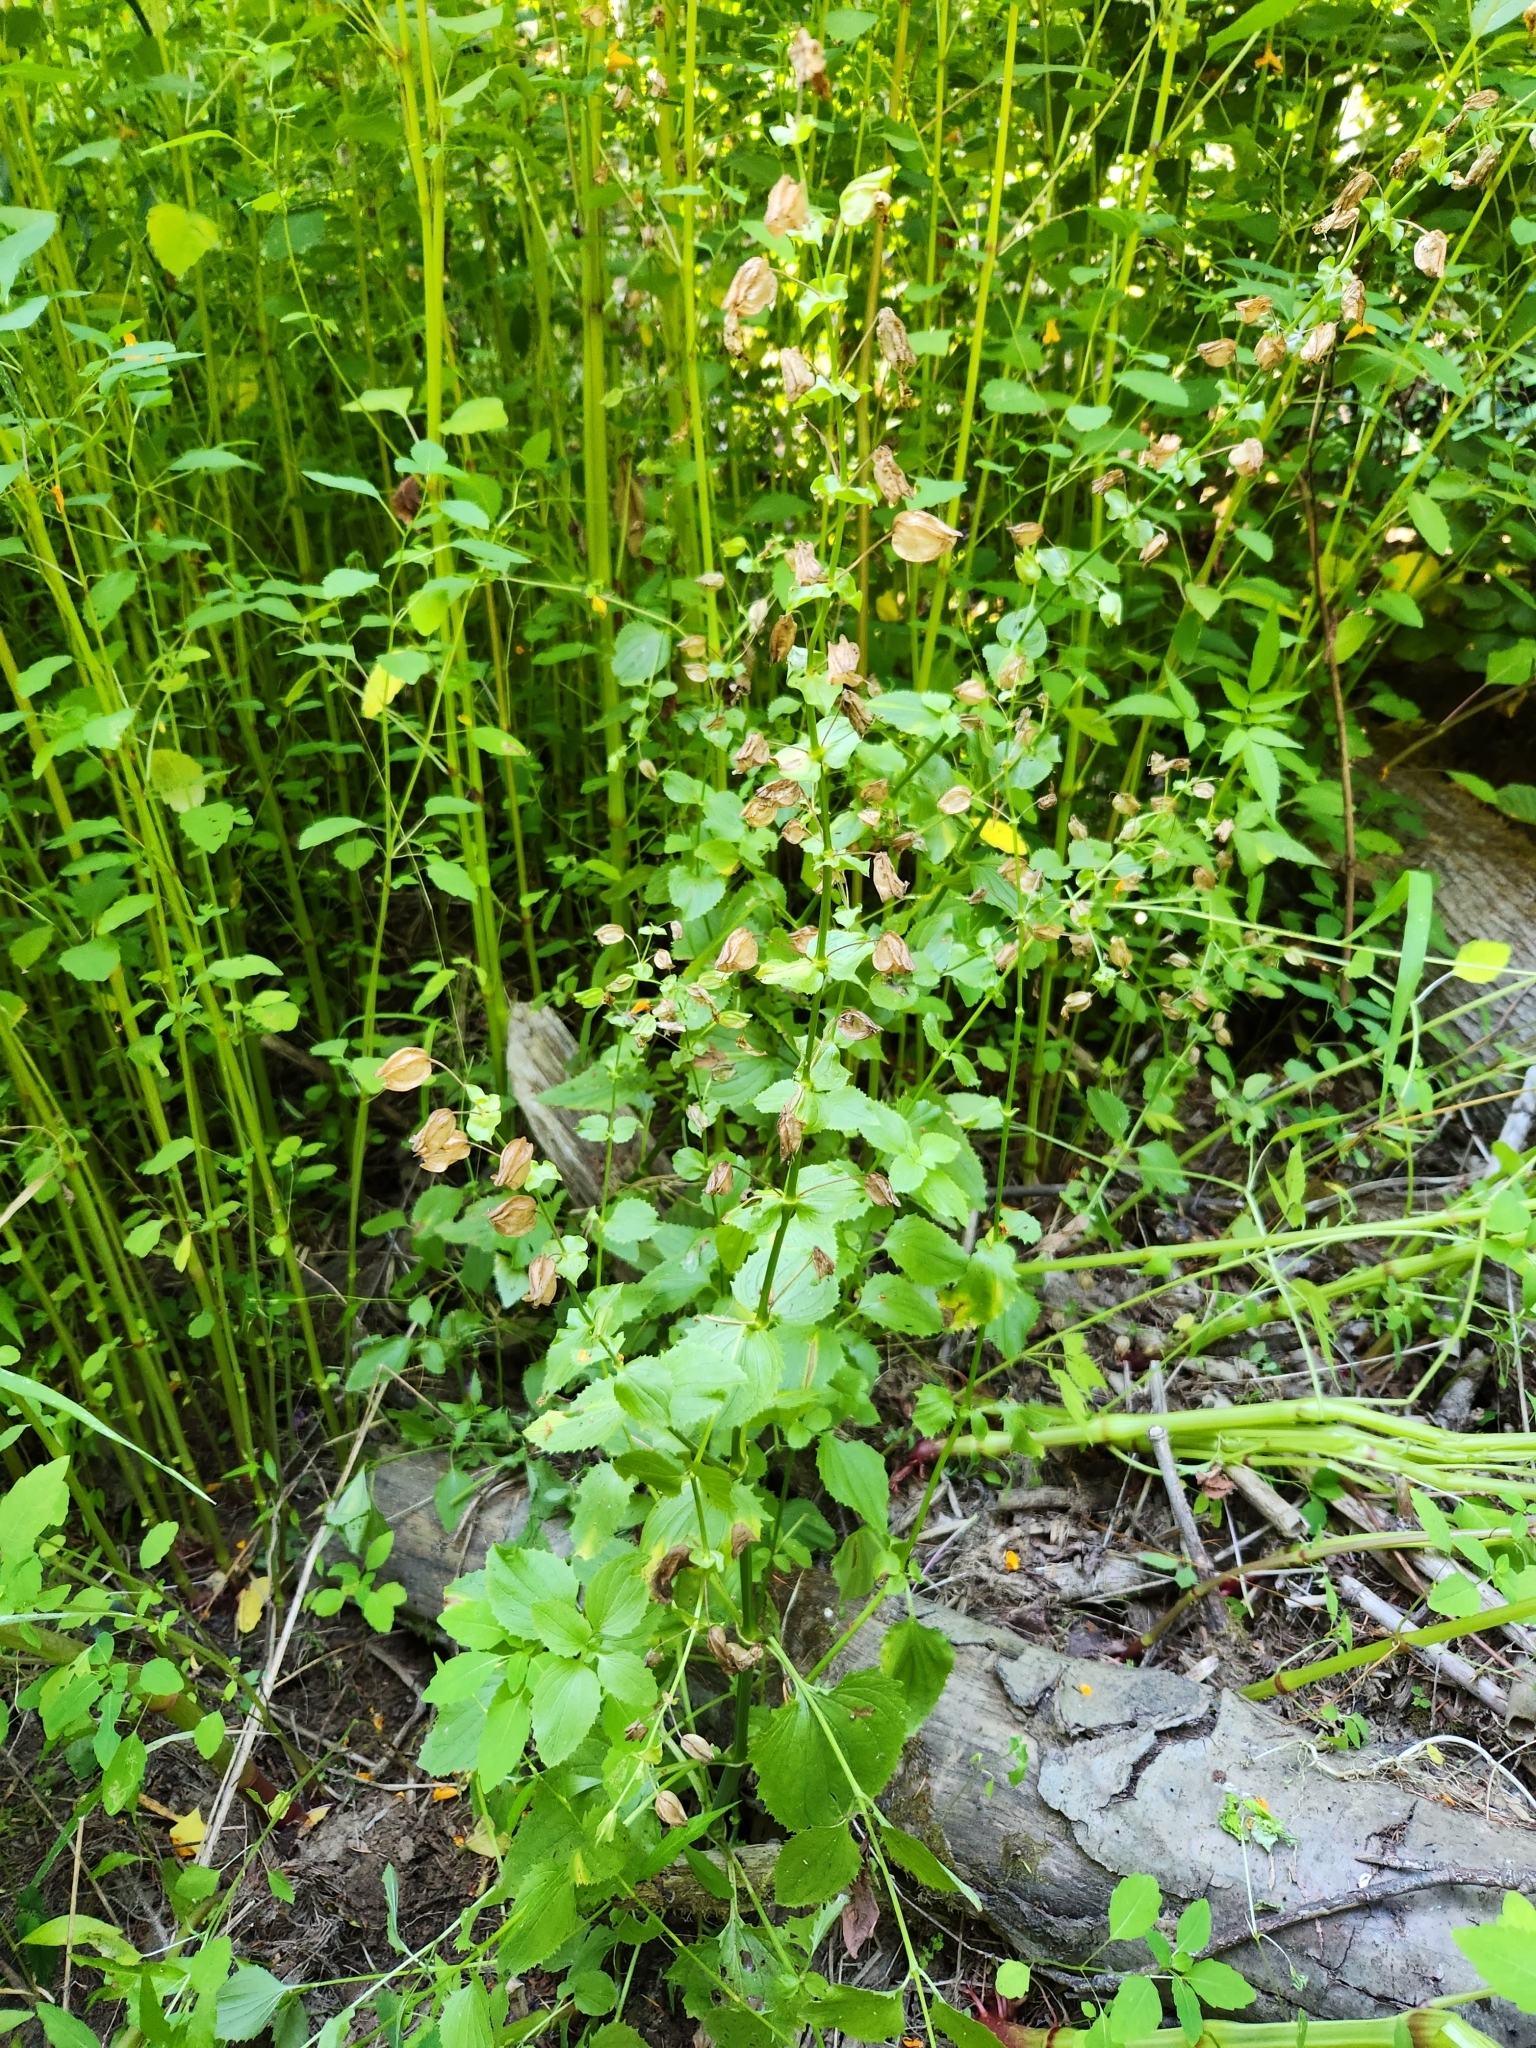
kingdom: Plantae
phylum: Tracheophyta
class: Magnoliopsida
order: Lamiales
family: Phrymaceae
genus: Erythranthe
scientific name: Erythranthe decora
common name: Mannered monkeyflower
